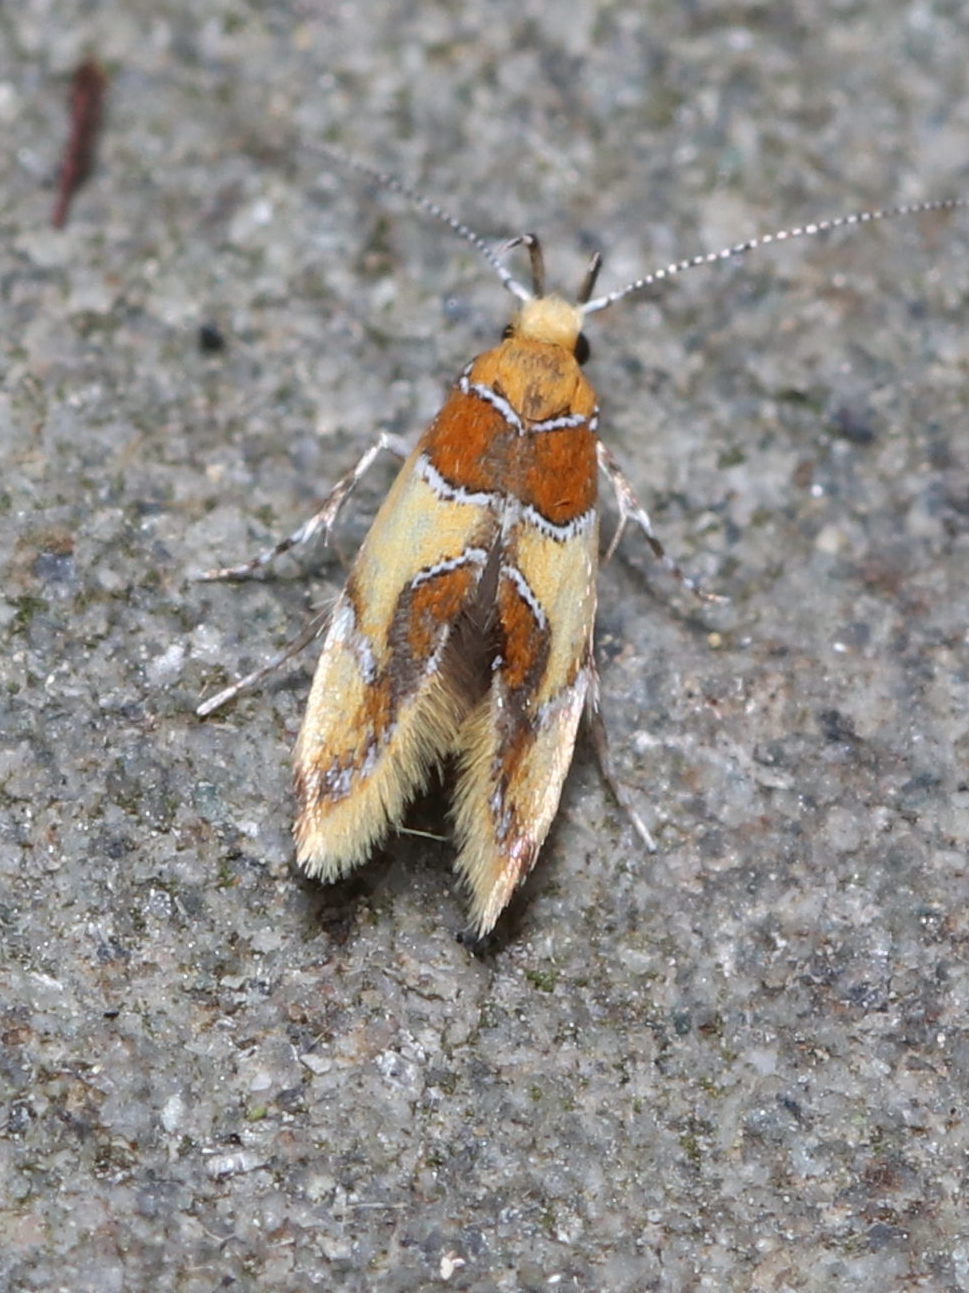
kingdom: Animalia
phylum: Arthropoda
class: Insecta
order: Lepidoptera
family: Oecophoridae
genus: Callima
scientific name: Callima argenticinctella
